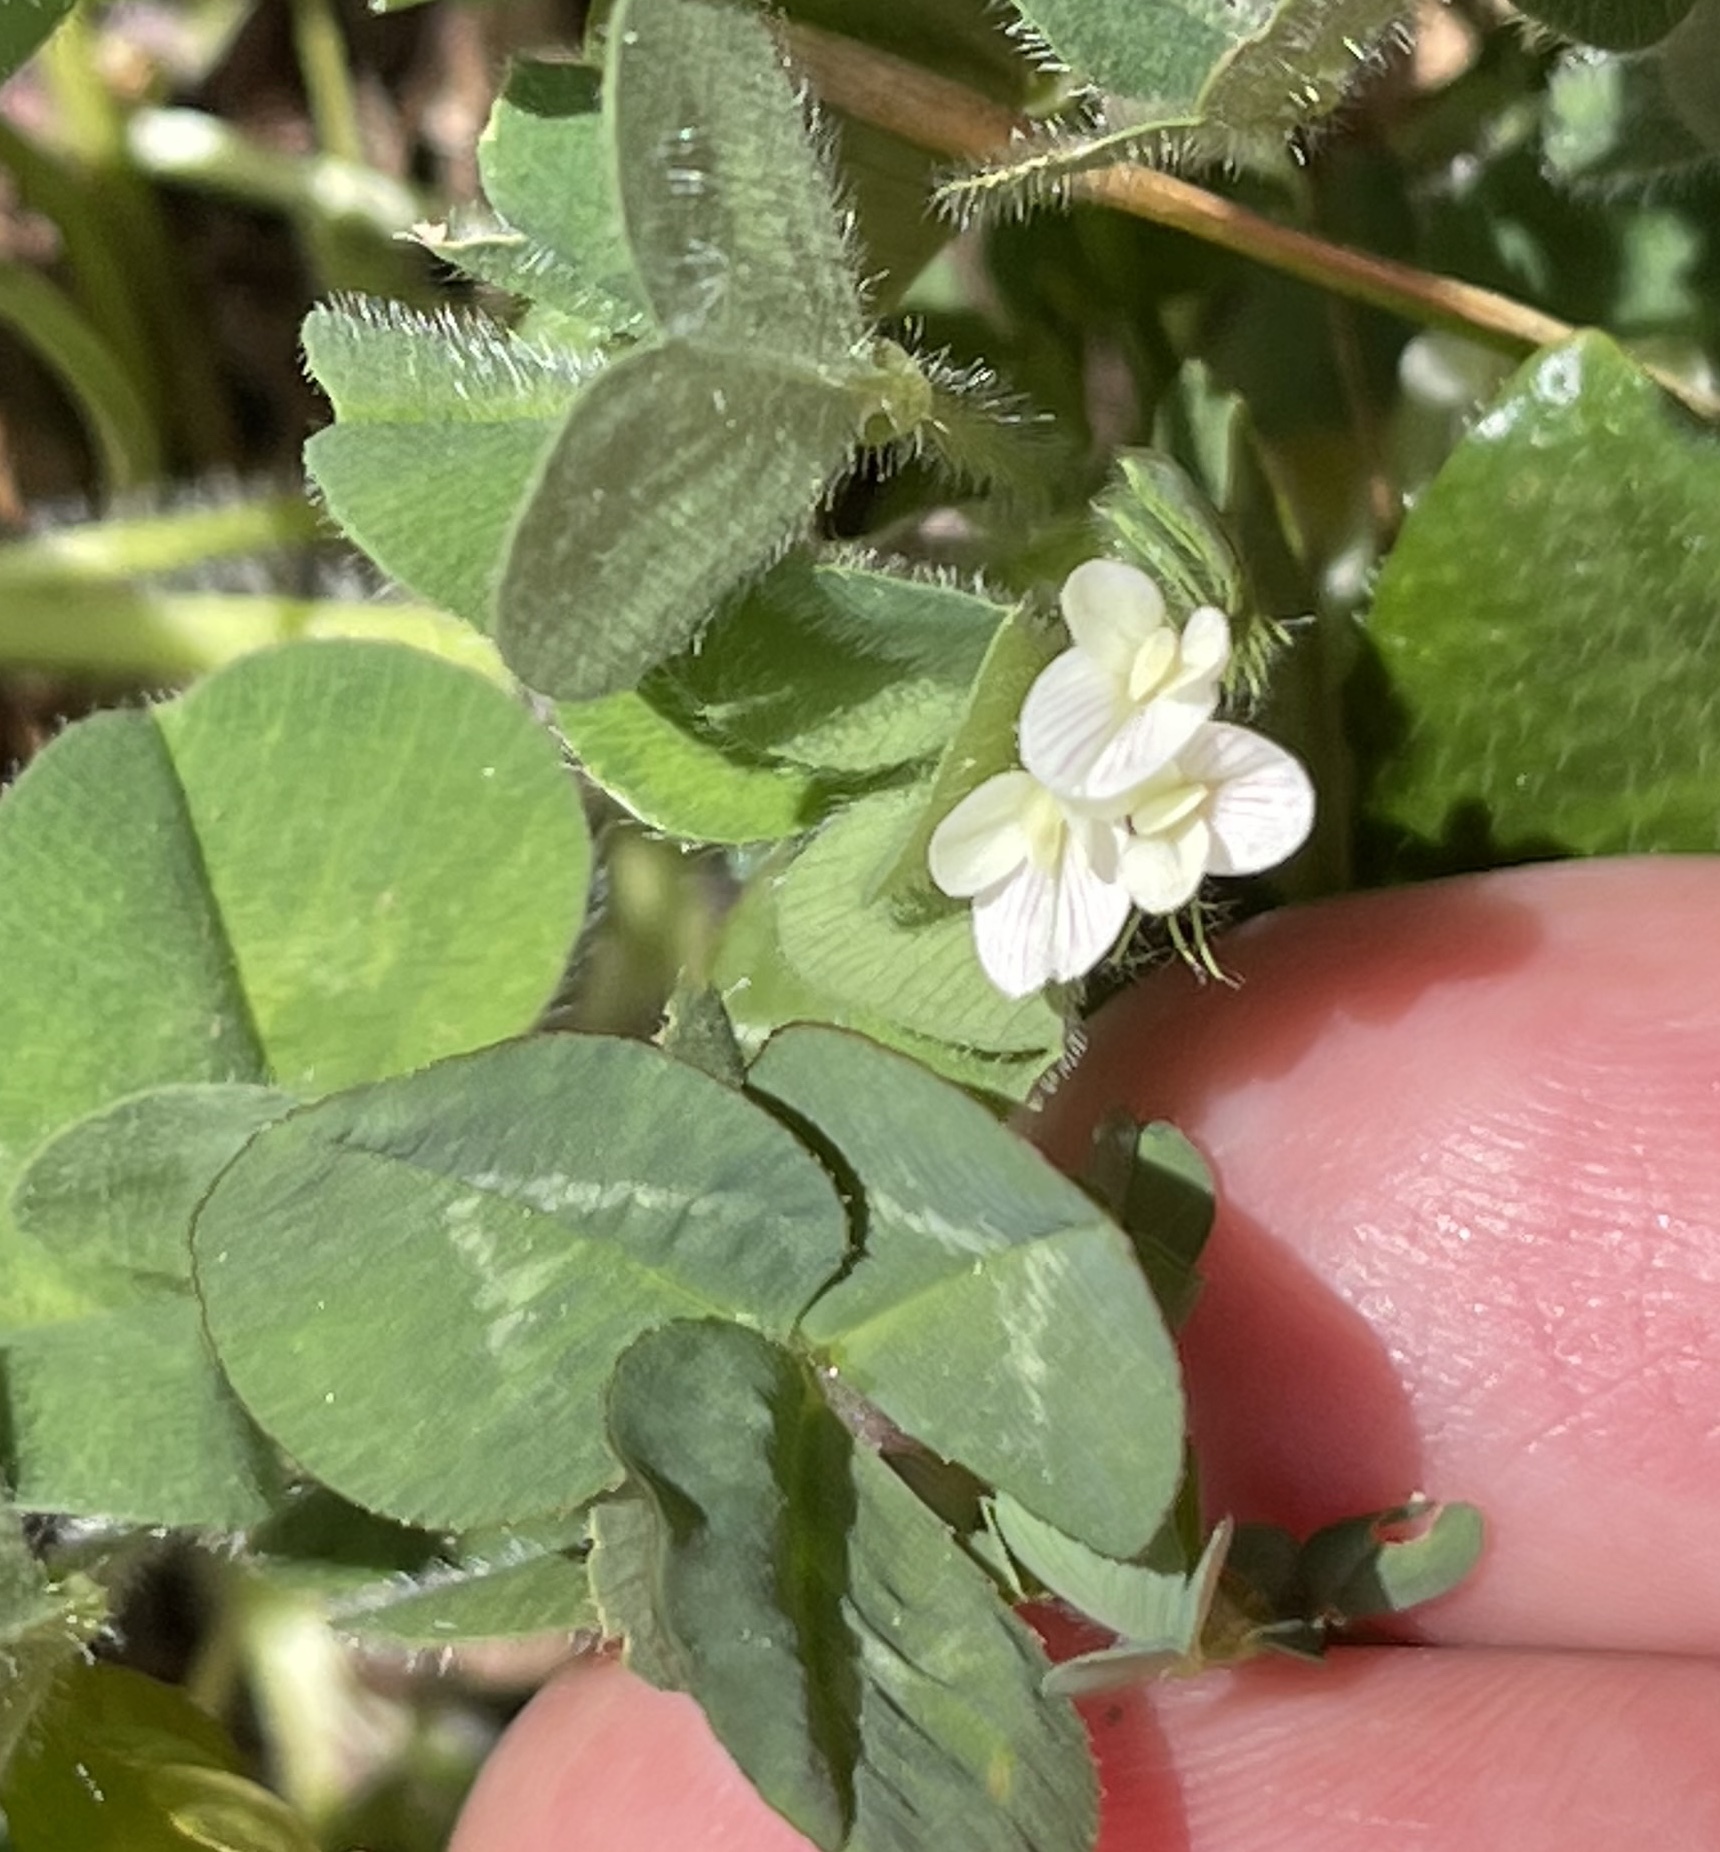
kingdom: Plantae
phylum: Tracheophyta
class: Magnoliopsida
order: Fabales
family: Fabaceae
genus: Trifolium
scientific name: Trifolium subterraneum
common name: Subterranean clover
